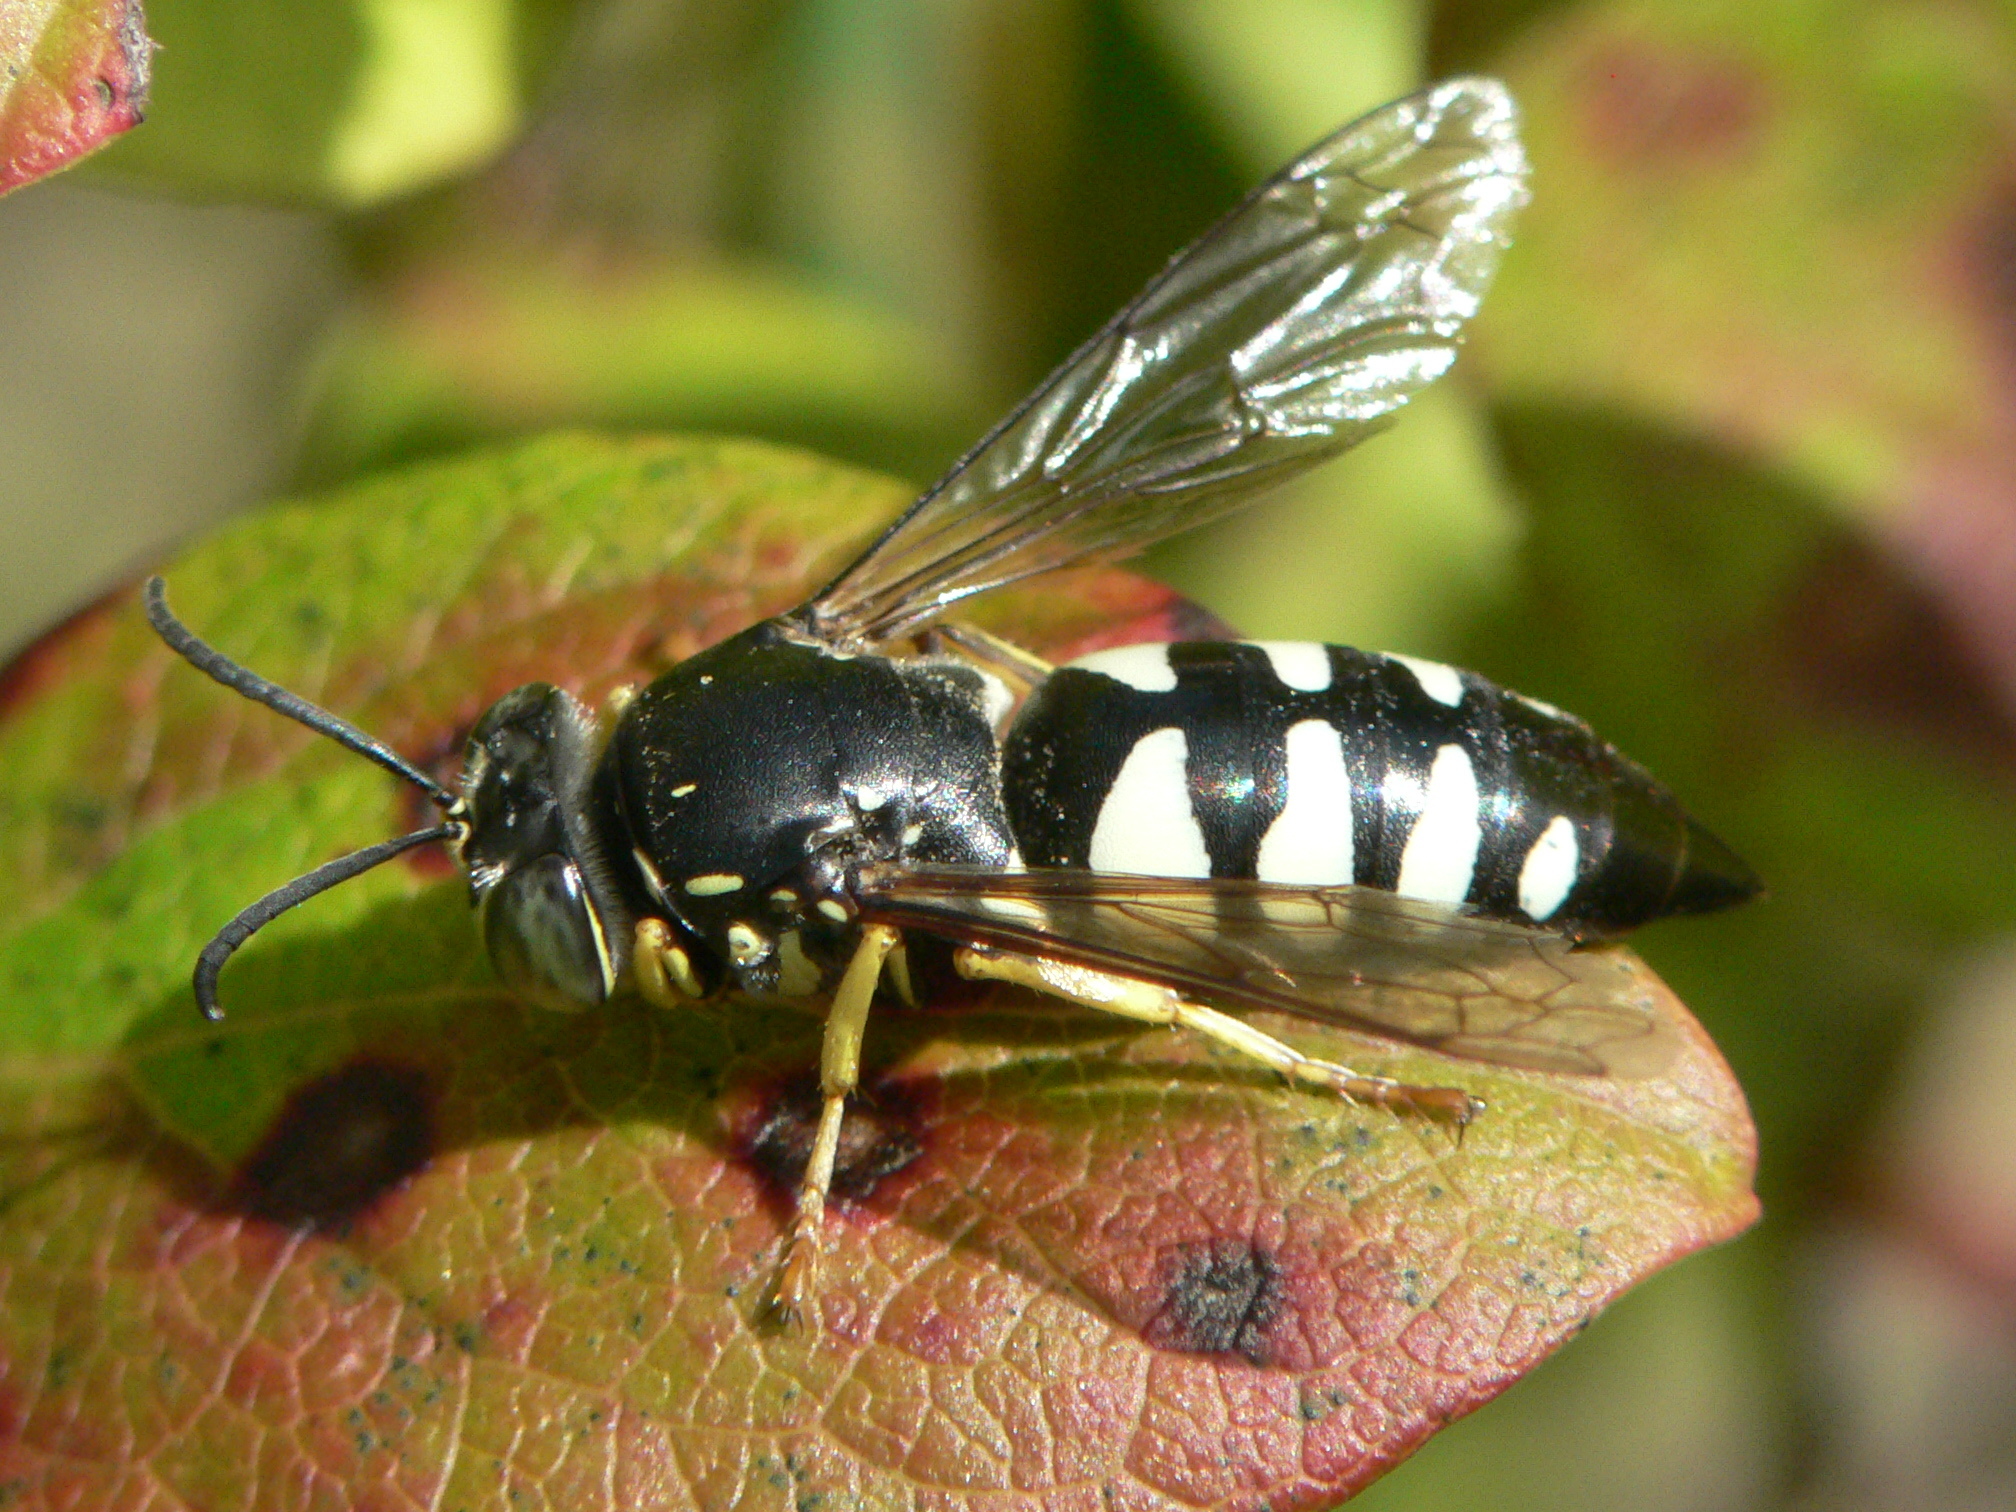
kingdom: Animalia
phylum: Arthropoda
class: Insecta
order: Hymenoptera
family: Crabronidae
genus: Bicyrtes
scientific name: Bicyrtes quadrifasciatus
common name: Four-banded stink bug hunter wasp
